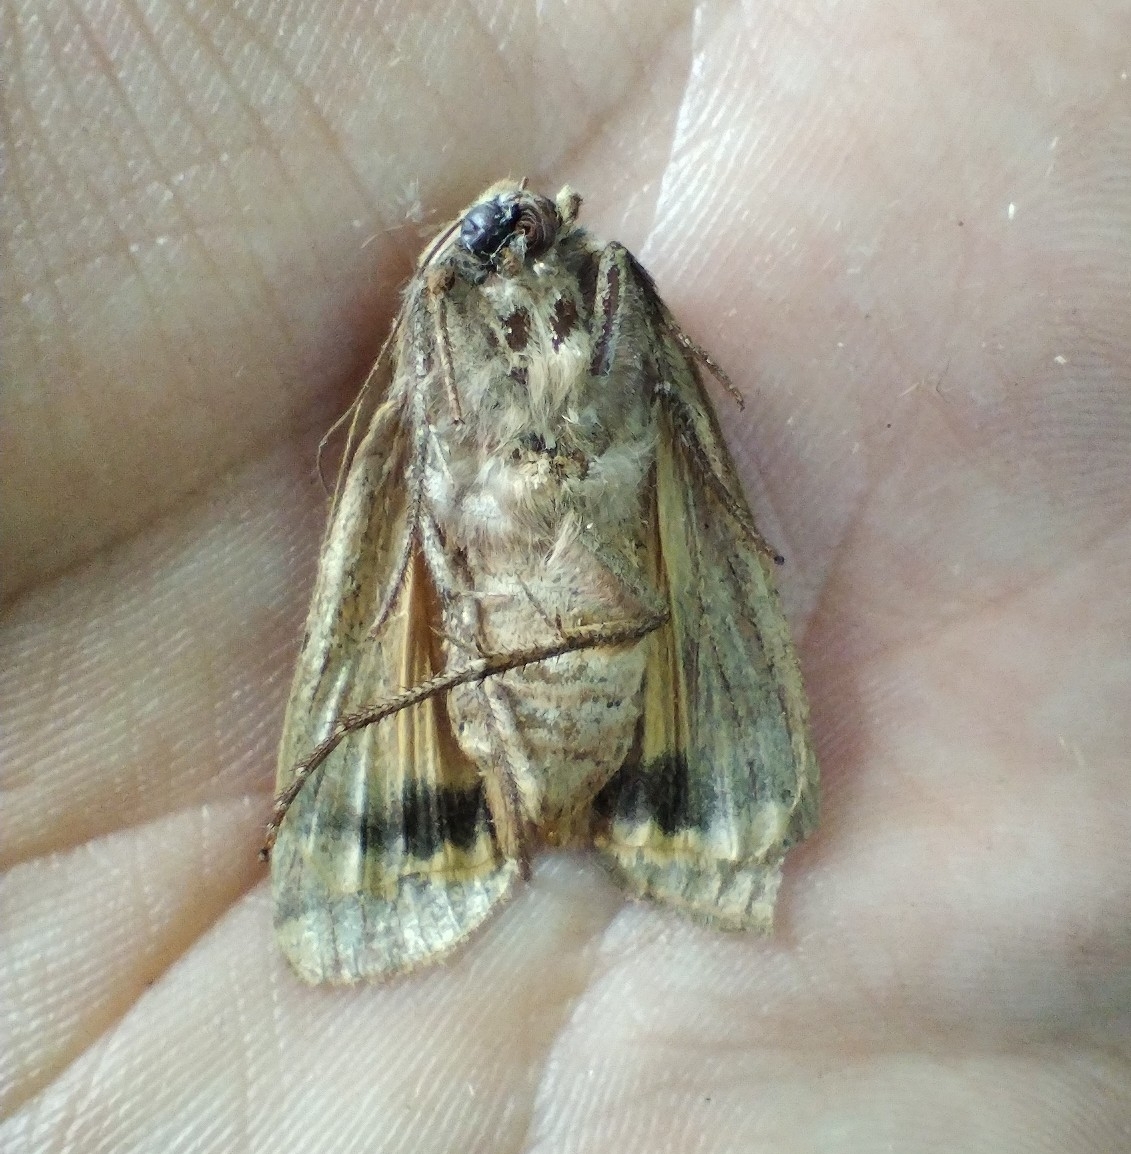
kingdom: Animalia
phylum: Arthropoda
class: Insecta
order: Lepidoptera
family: Noctuidae
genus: Noctua
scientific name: Noctua pronuba
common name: Large yellow underwing
